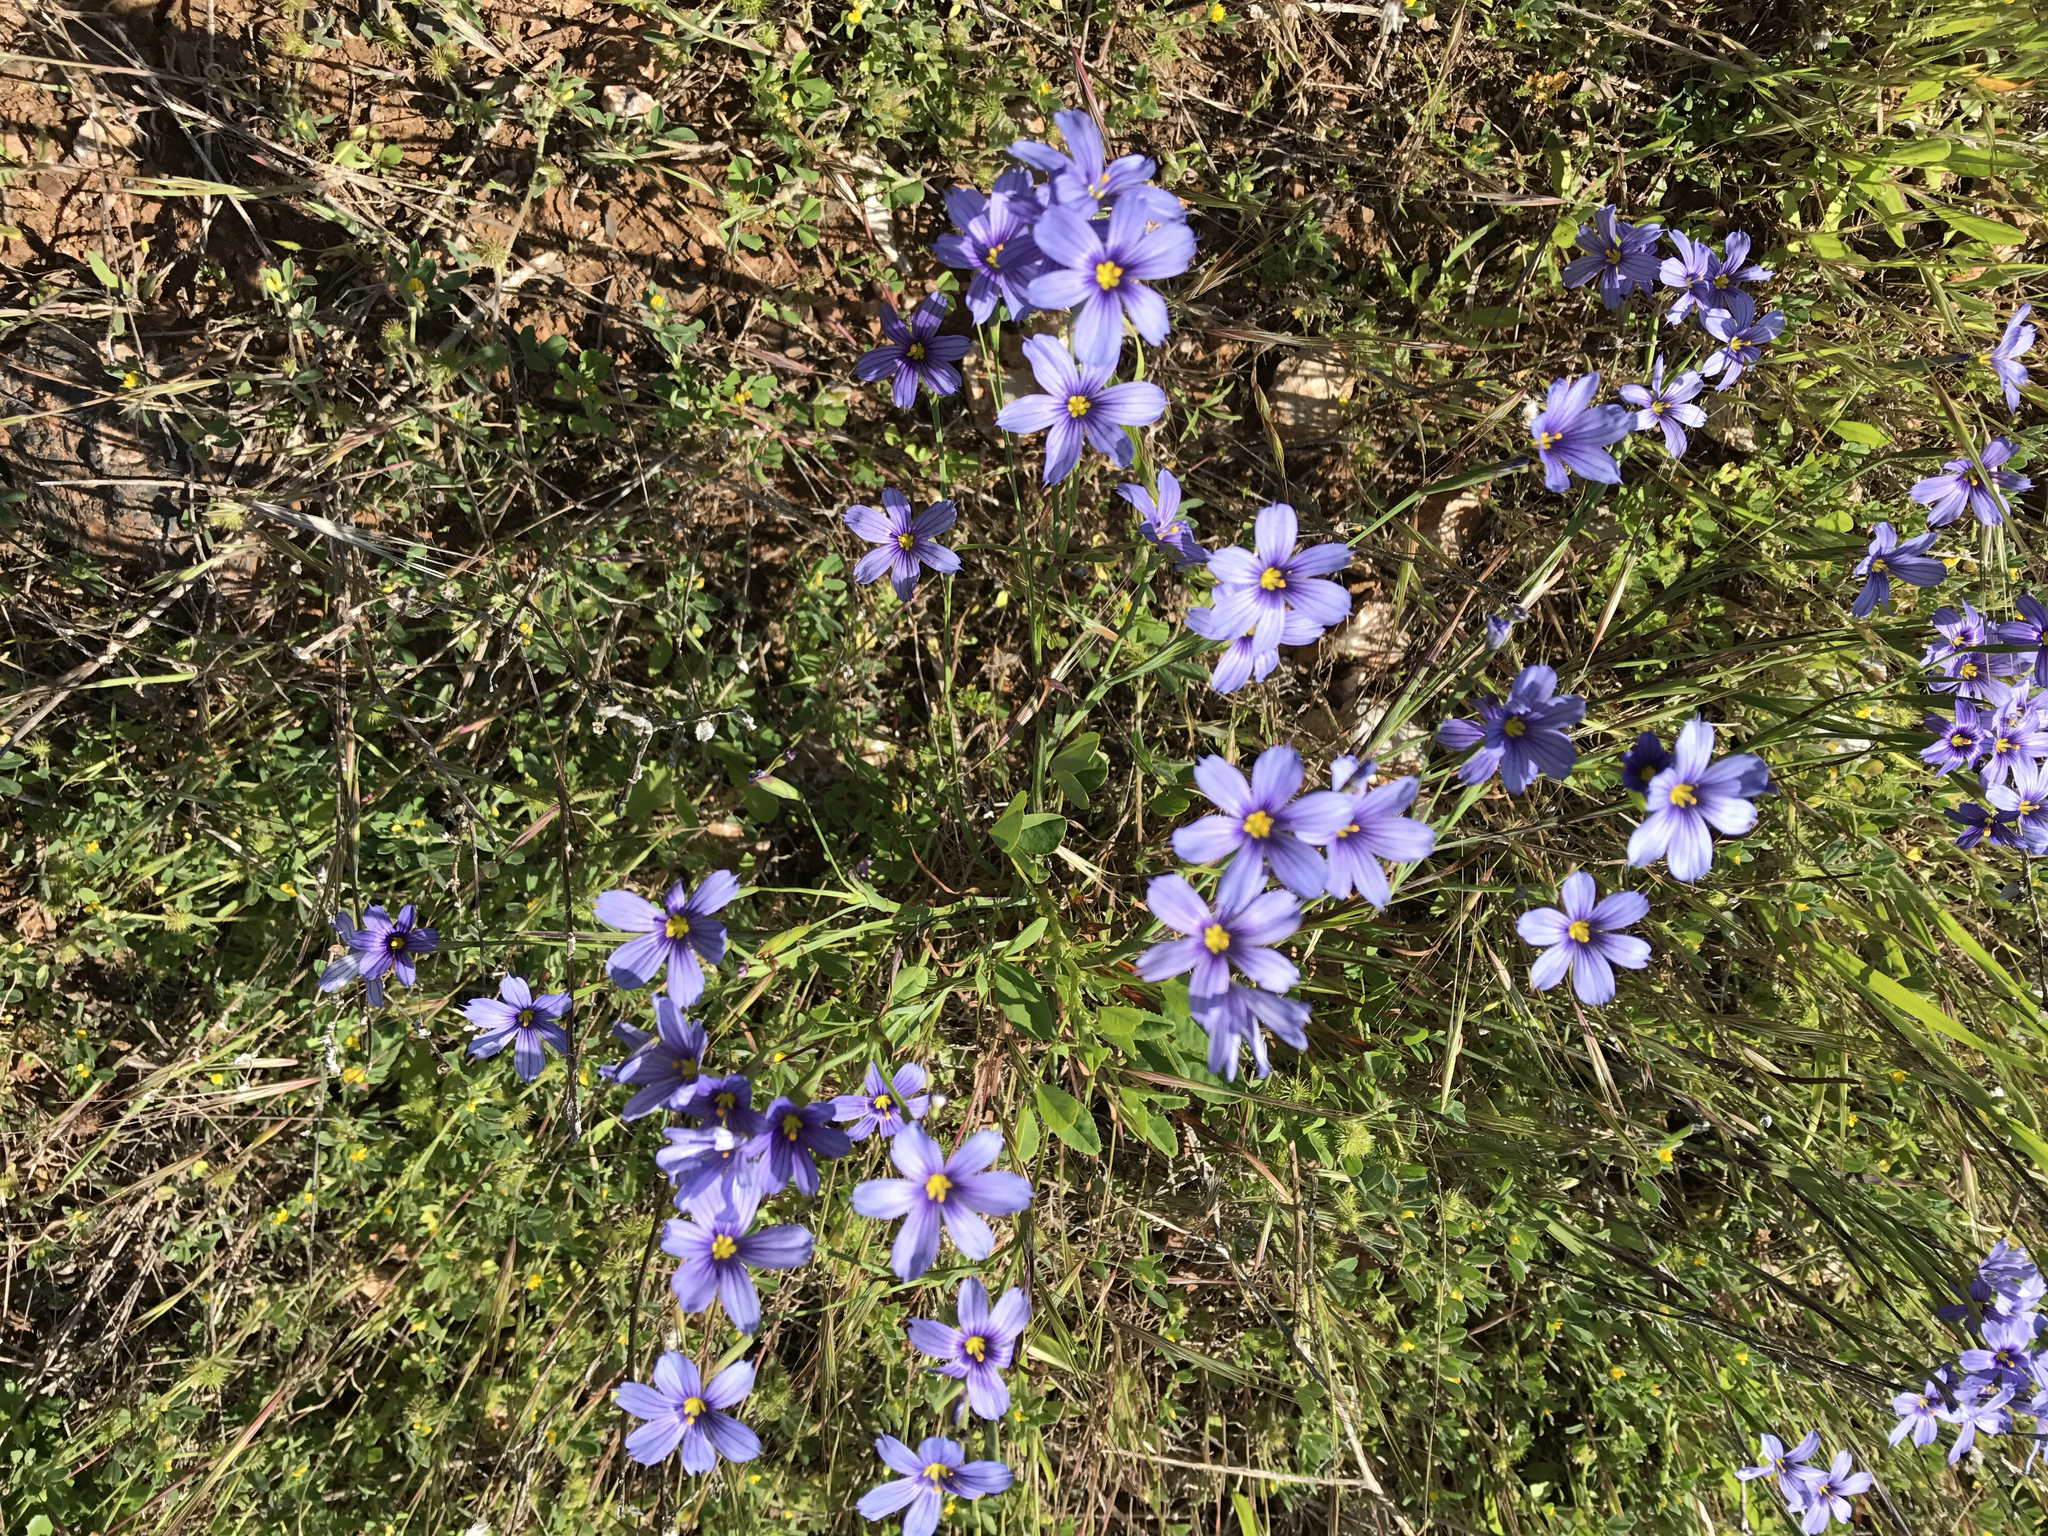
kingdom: Plantae
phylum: Tracheophyta
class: Liliopsida
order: Asparagales
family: Iridaceae
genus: Sisyrinchium
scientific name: Sisyrinchium bellum
